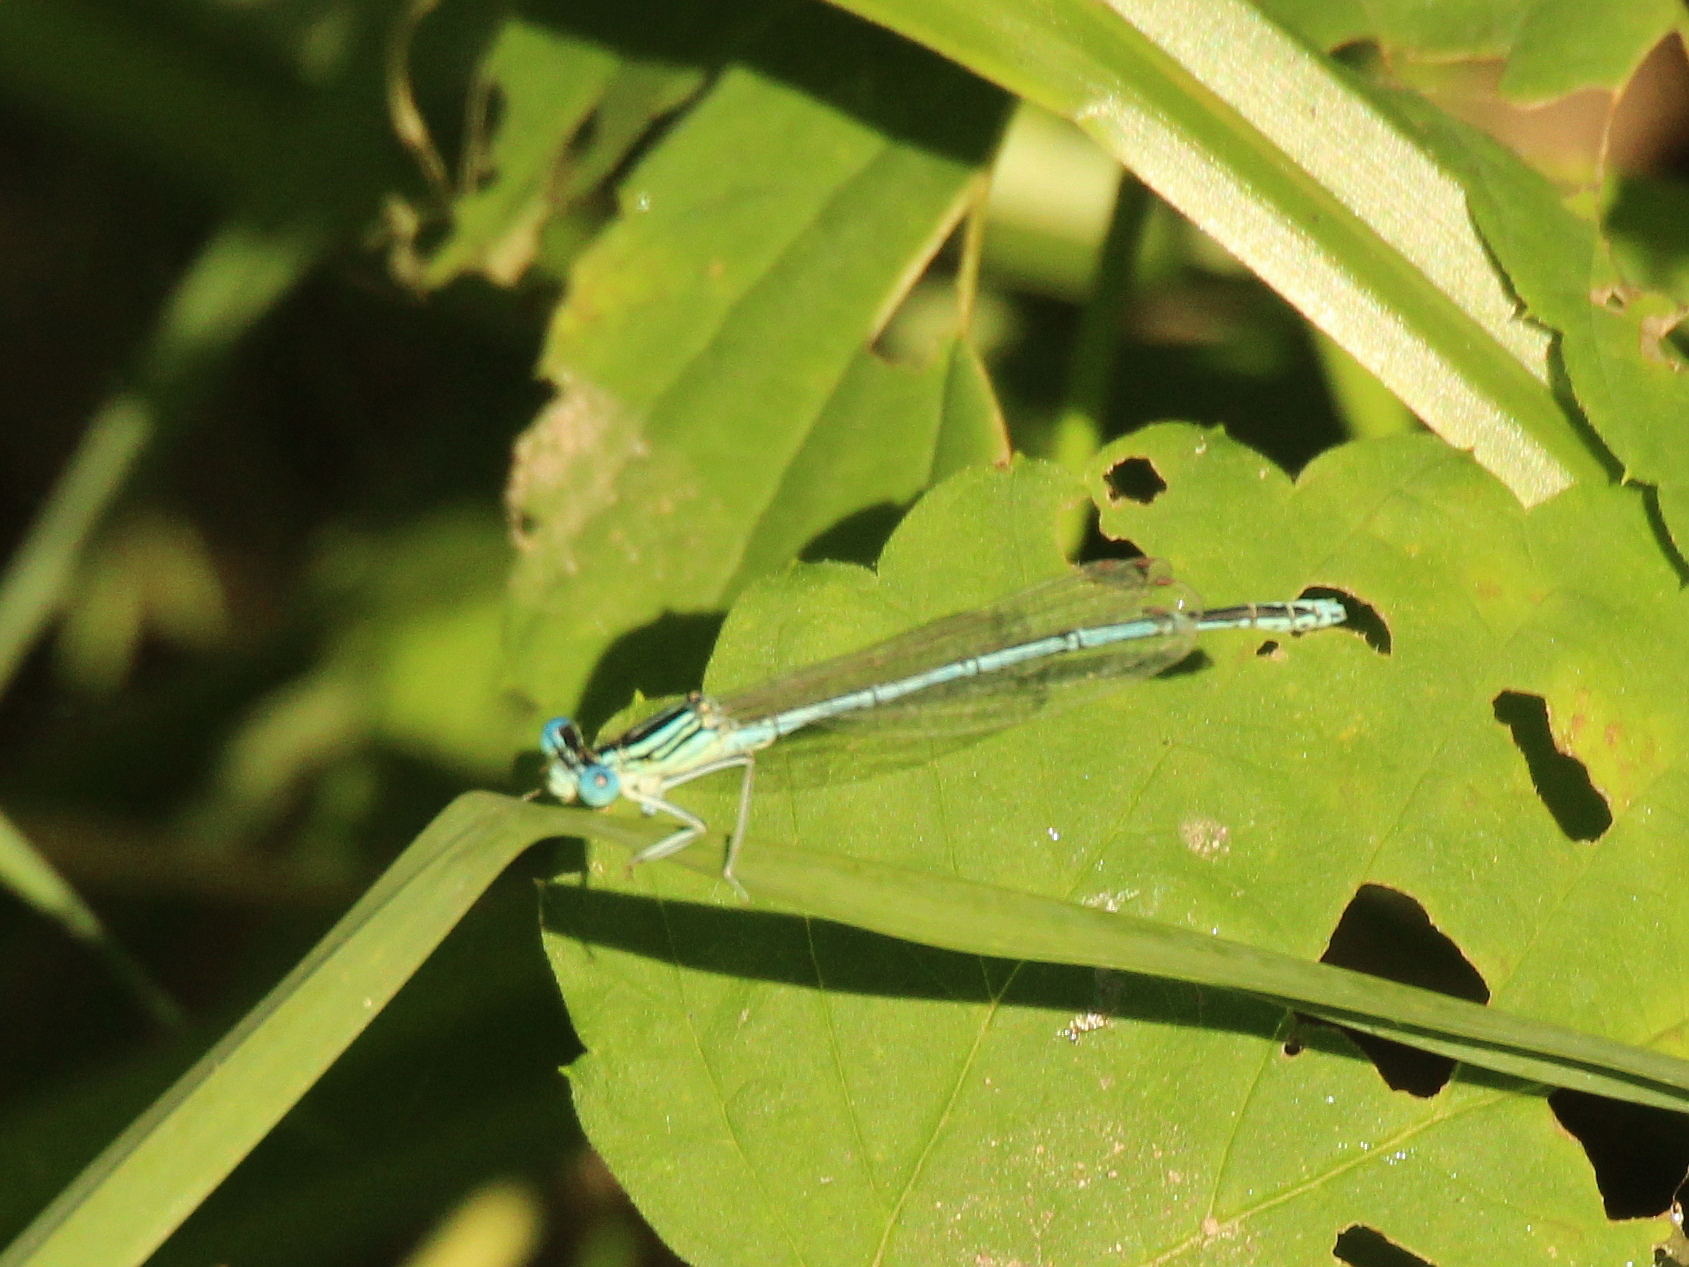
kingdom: Animalia
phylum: Arthropoda
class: Insecta
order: Odonata
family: Platycnemididae
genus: Platycnemis
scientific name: Platycnemis pennipes
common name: White-legged damselfly
